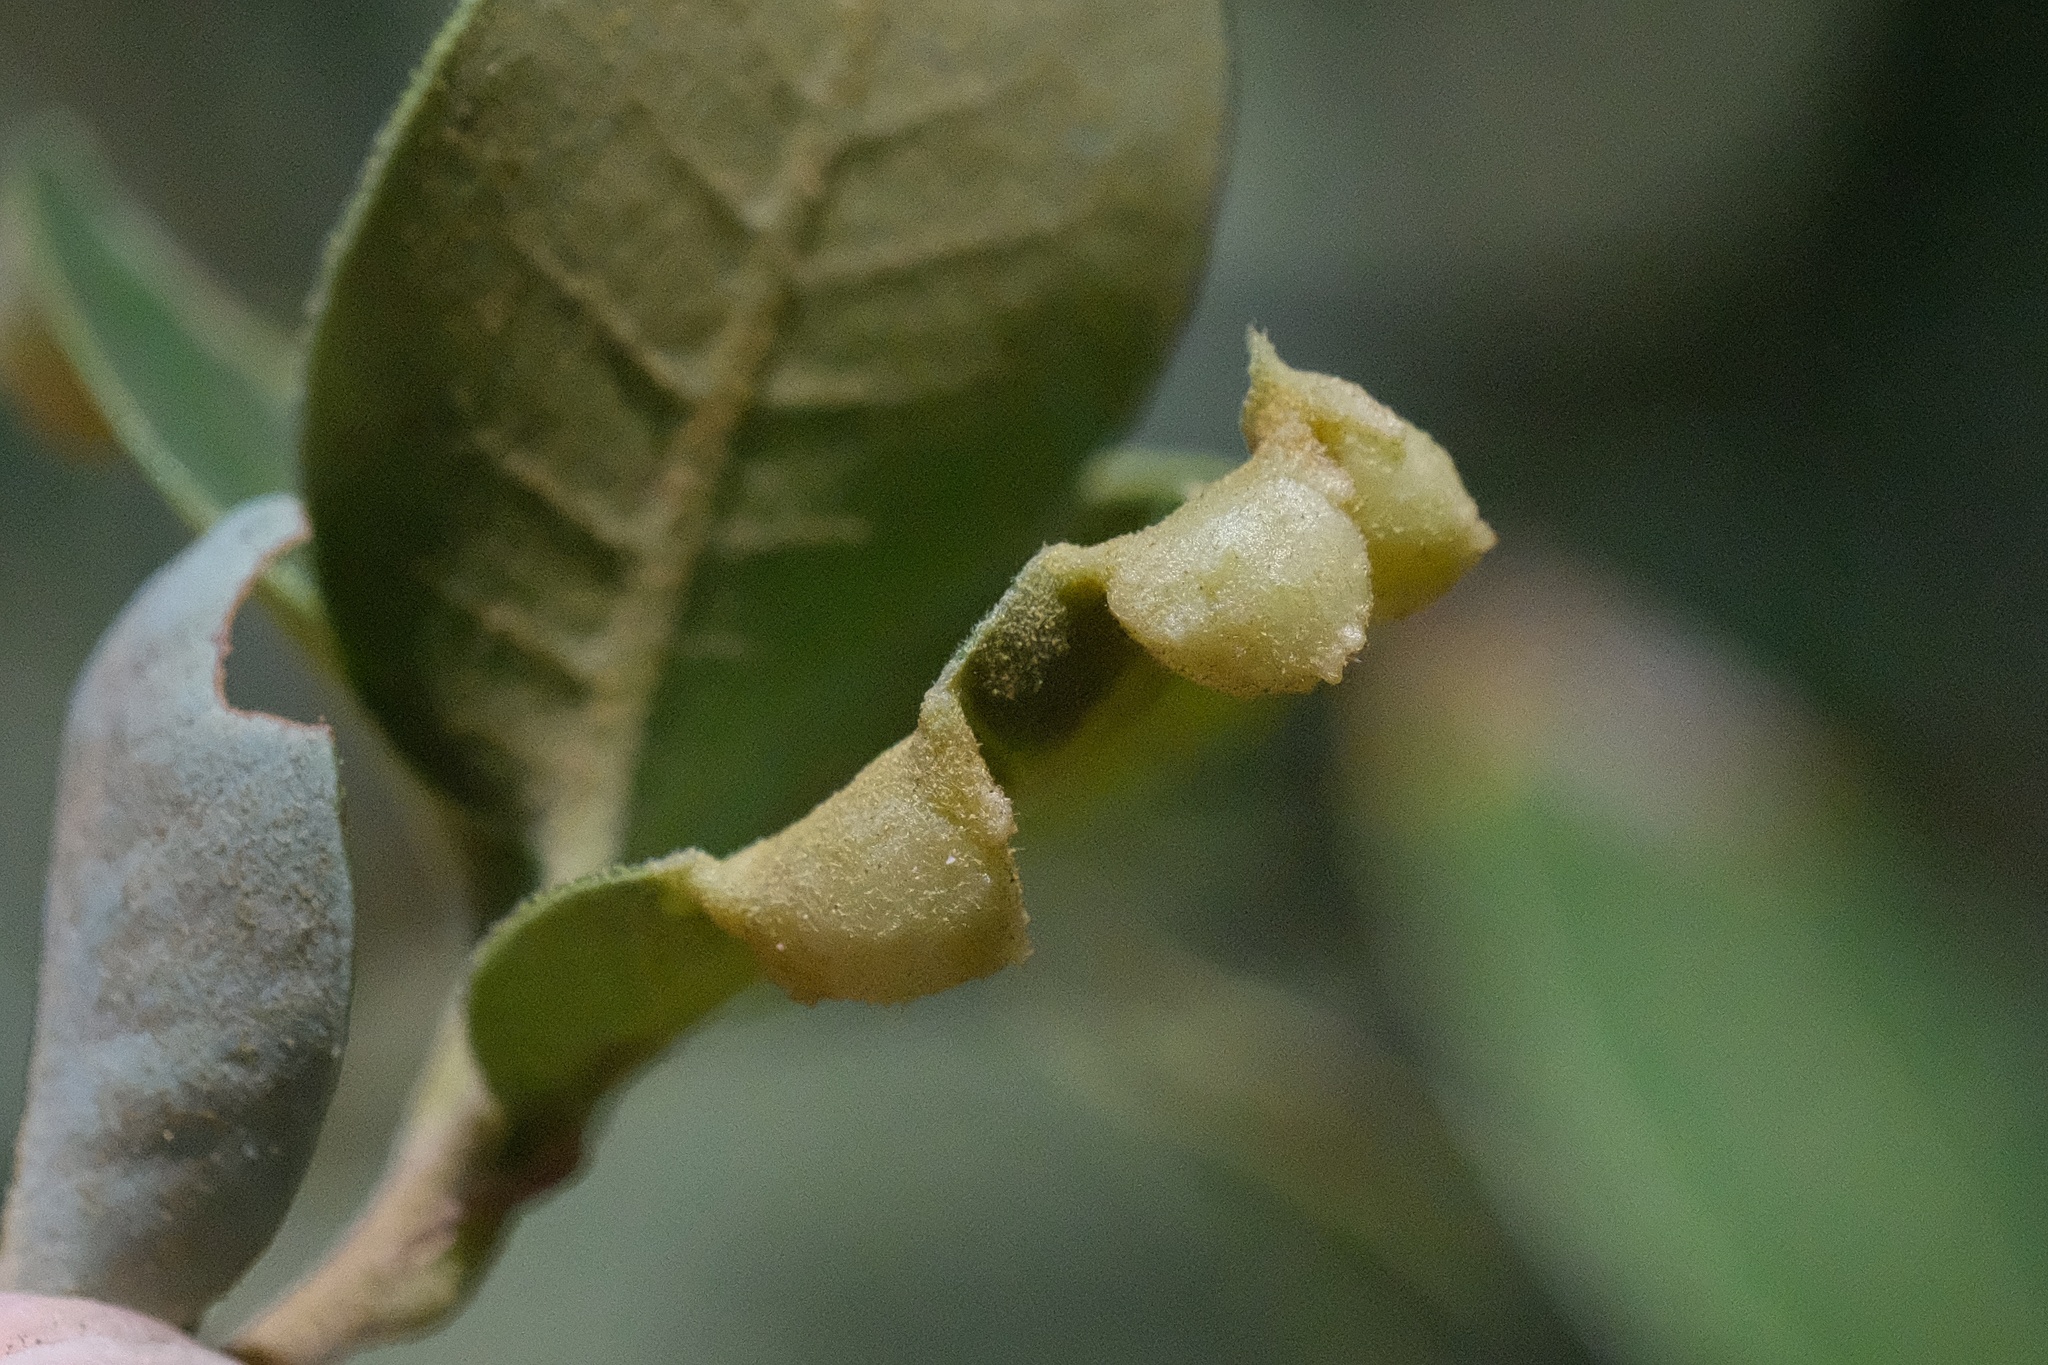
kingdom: Animalia
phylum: Arthropoda
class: Insecta
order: Diptera
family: Cecidomyiidae
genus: Dasineura
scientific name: Dasineura
